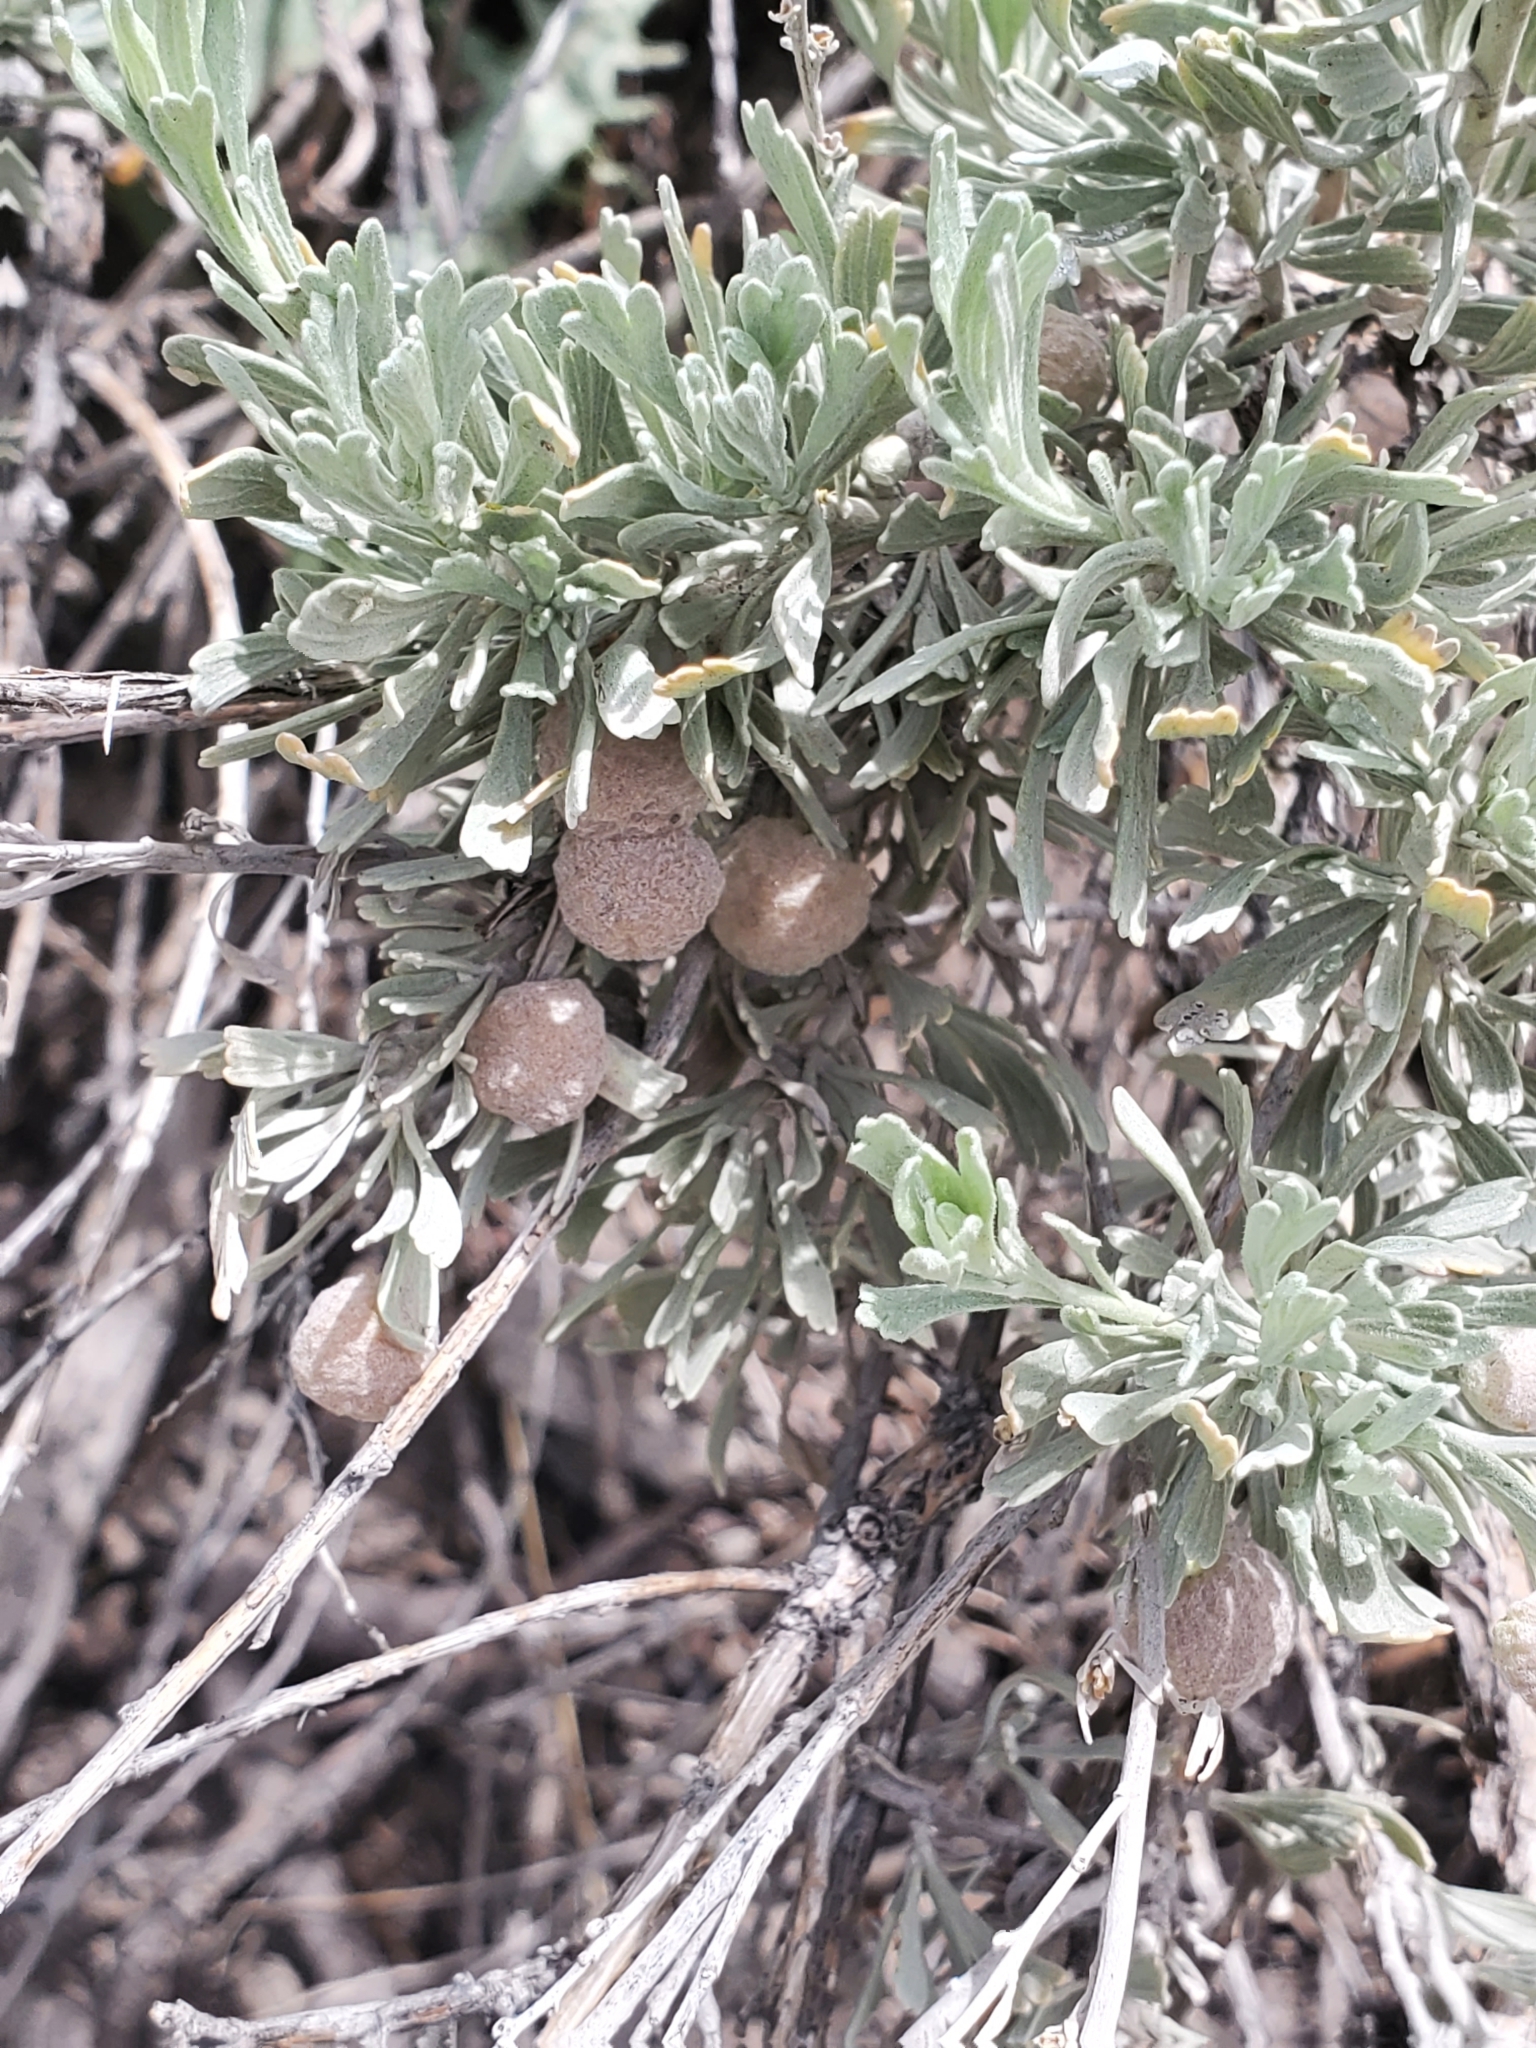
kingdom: Animalia
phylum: Arthropoda
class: Insecta
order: Diptera
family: Cecidomyiidae
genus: Rhopalomyia
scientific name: Rhopalomyia pomum
